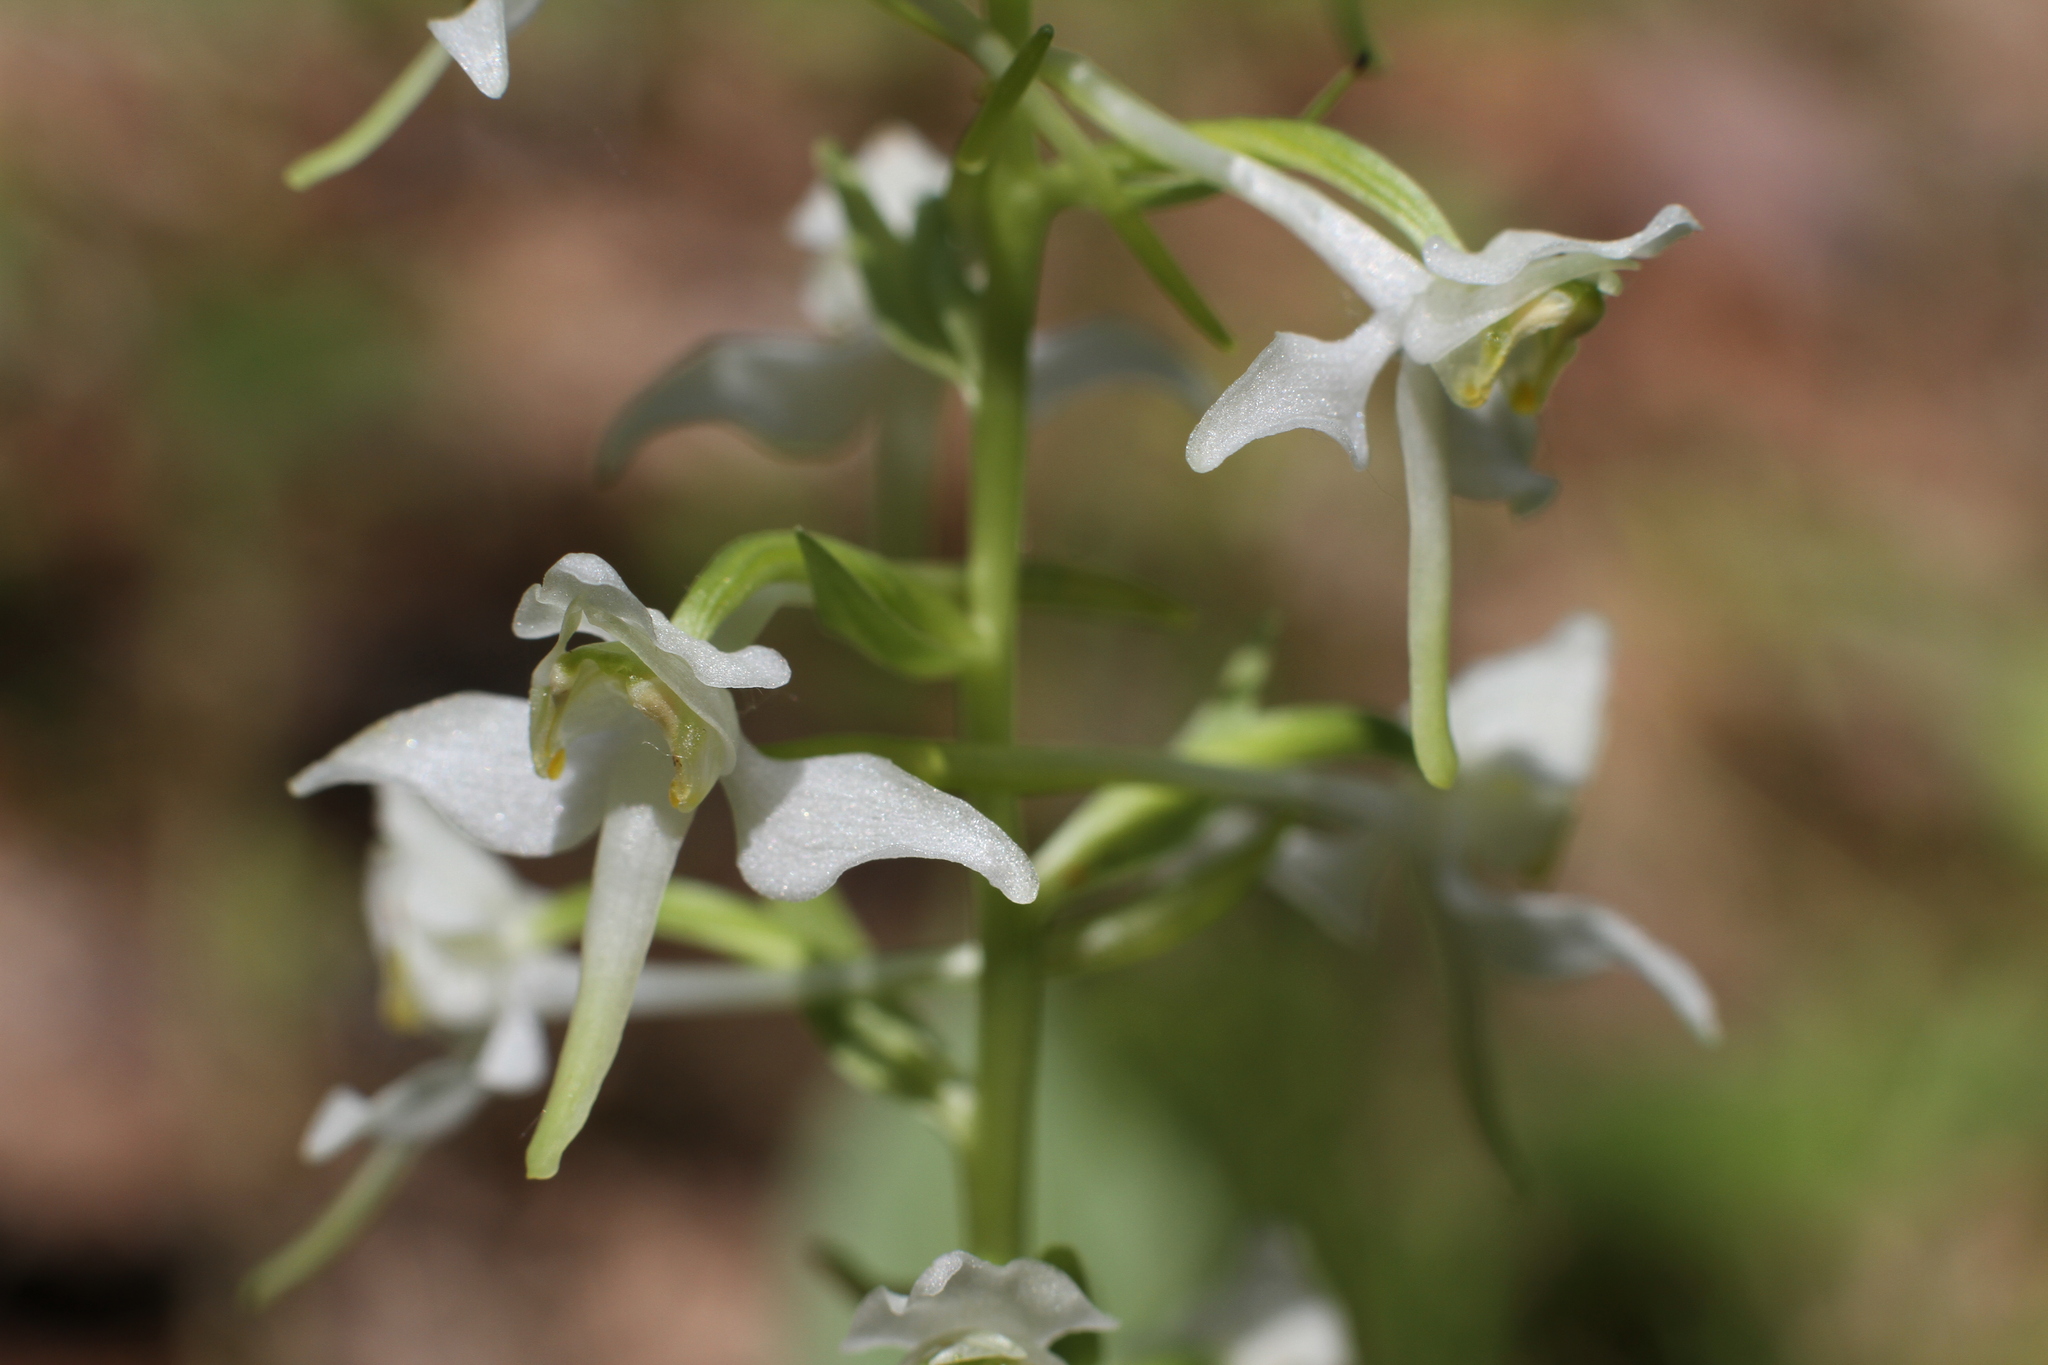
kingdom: Plantae
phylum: Tracheophyta
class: Liliopsida
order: Asparagales
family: Orchidaceae
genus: Platanthera
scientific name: Platanthera chlorantha
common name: Greater butterfly-orchid
